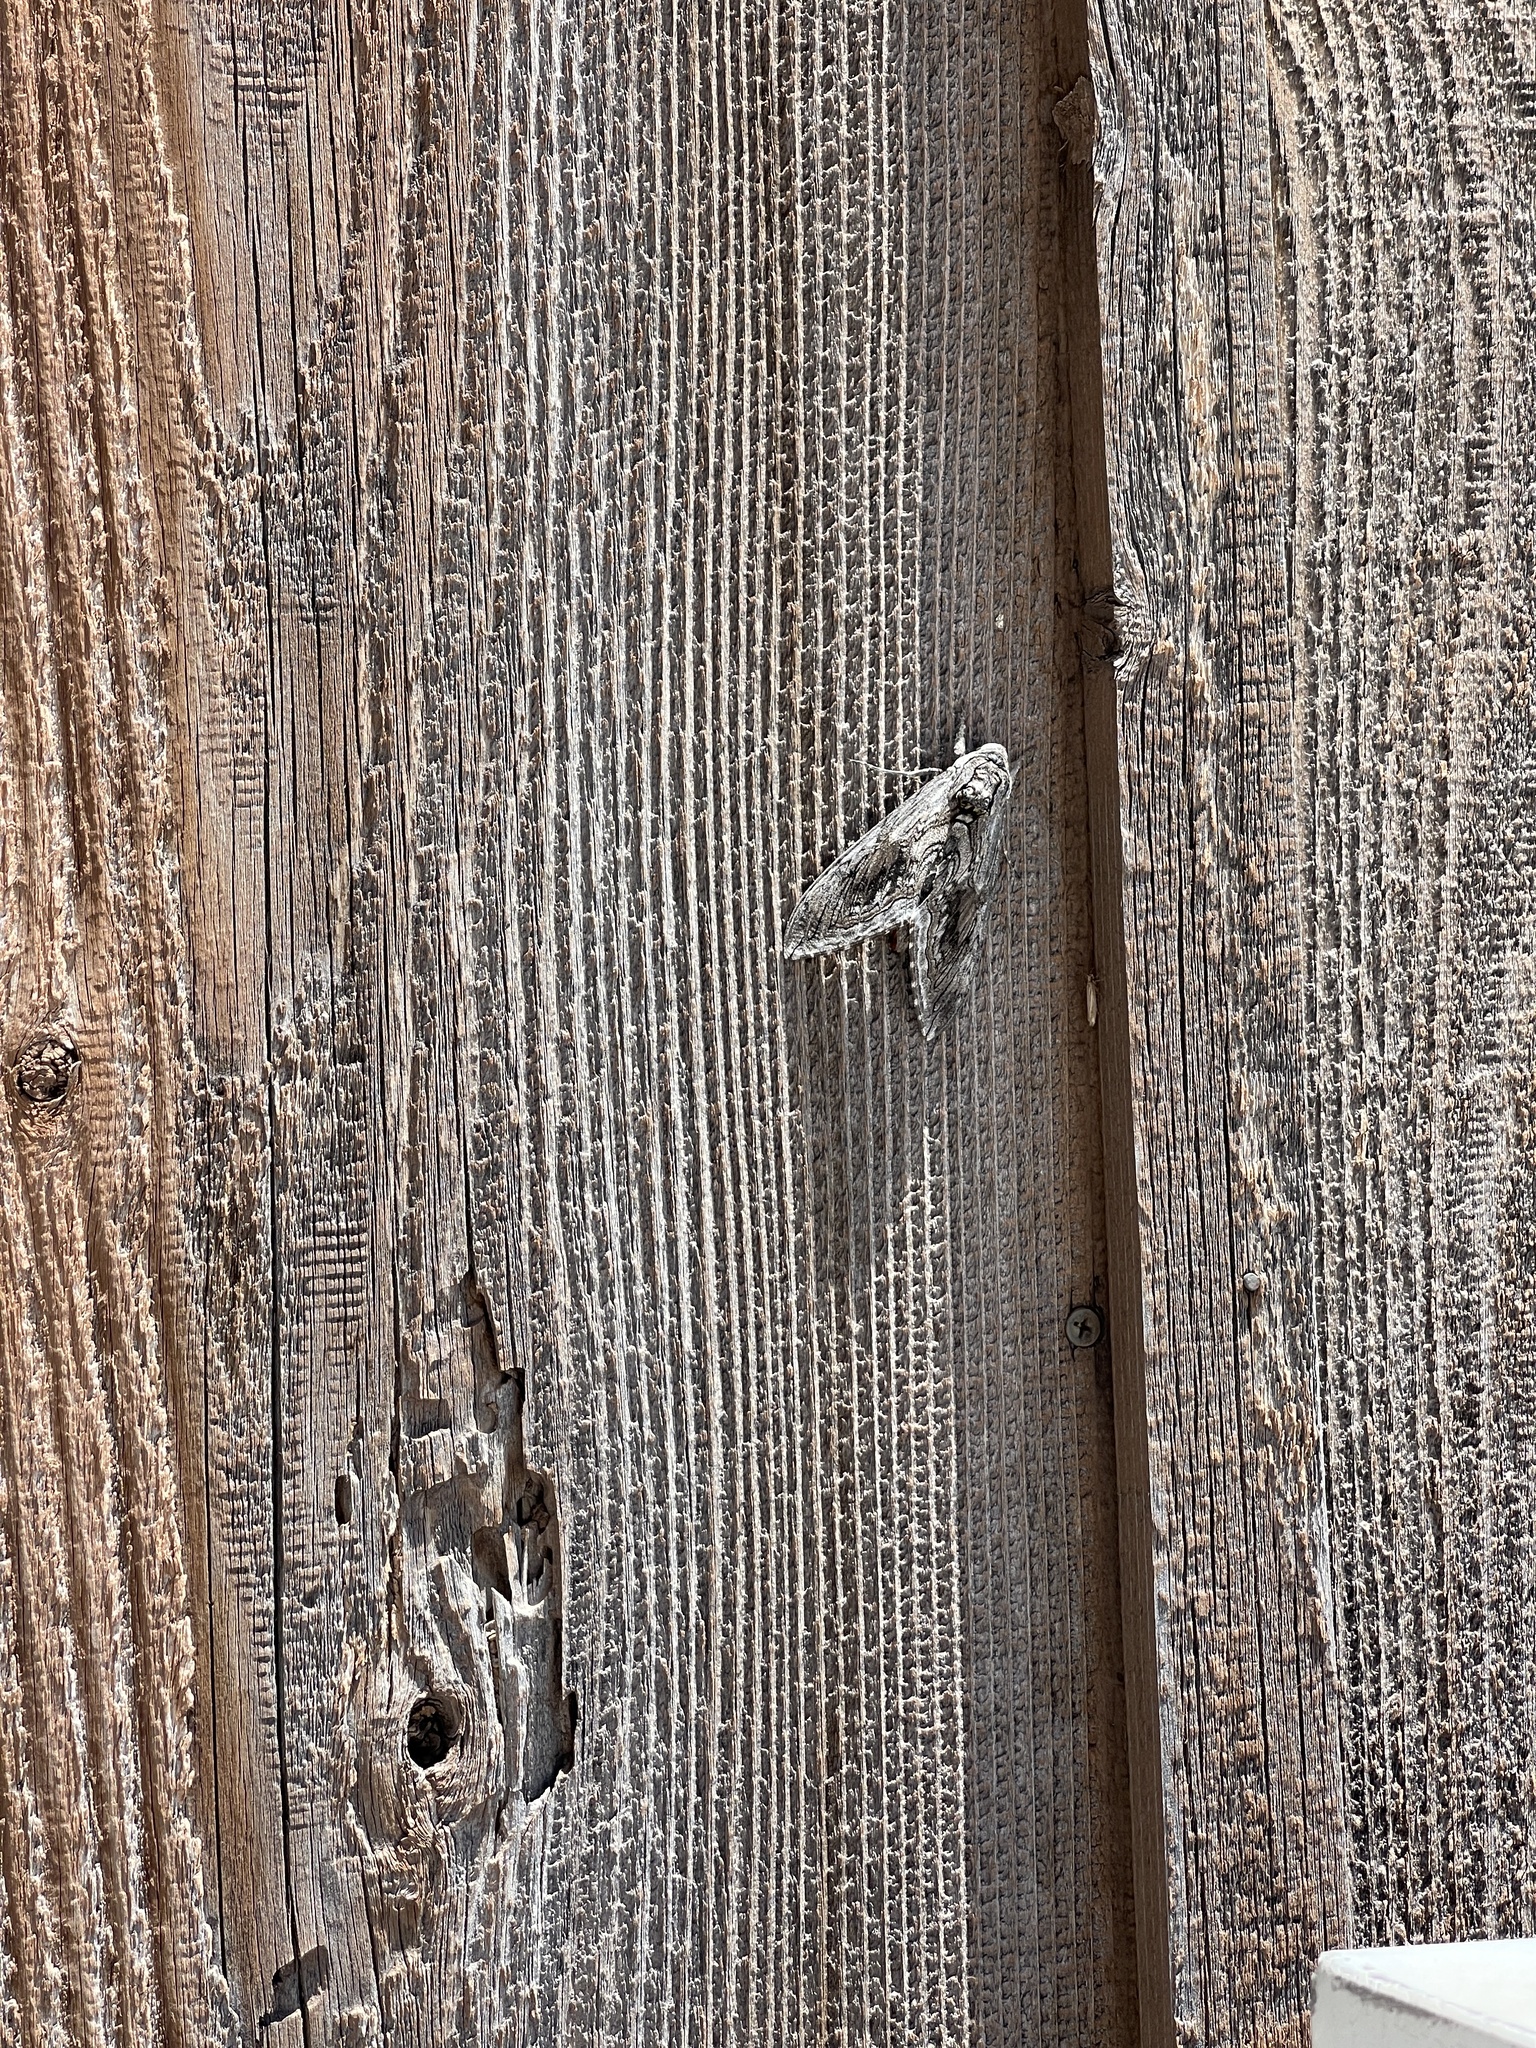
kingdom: Animalia
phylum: Arthropoda
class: Insecta
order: Lepidoptera
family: Sphingidae
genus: Manduca
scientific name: Manduca quinquemaculatus
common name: Five-spotted hawk-moth
